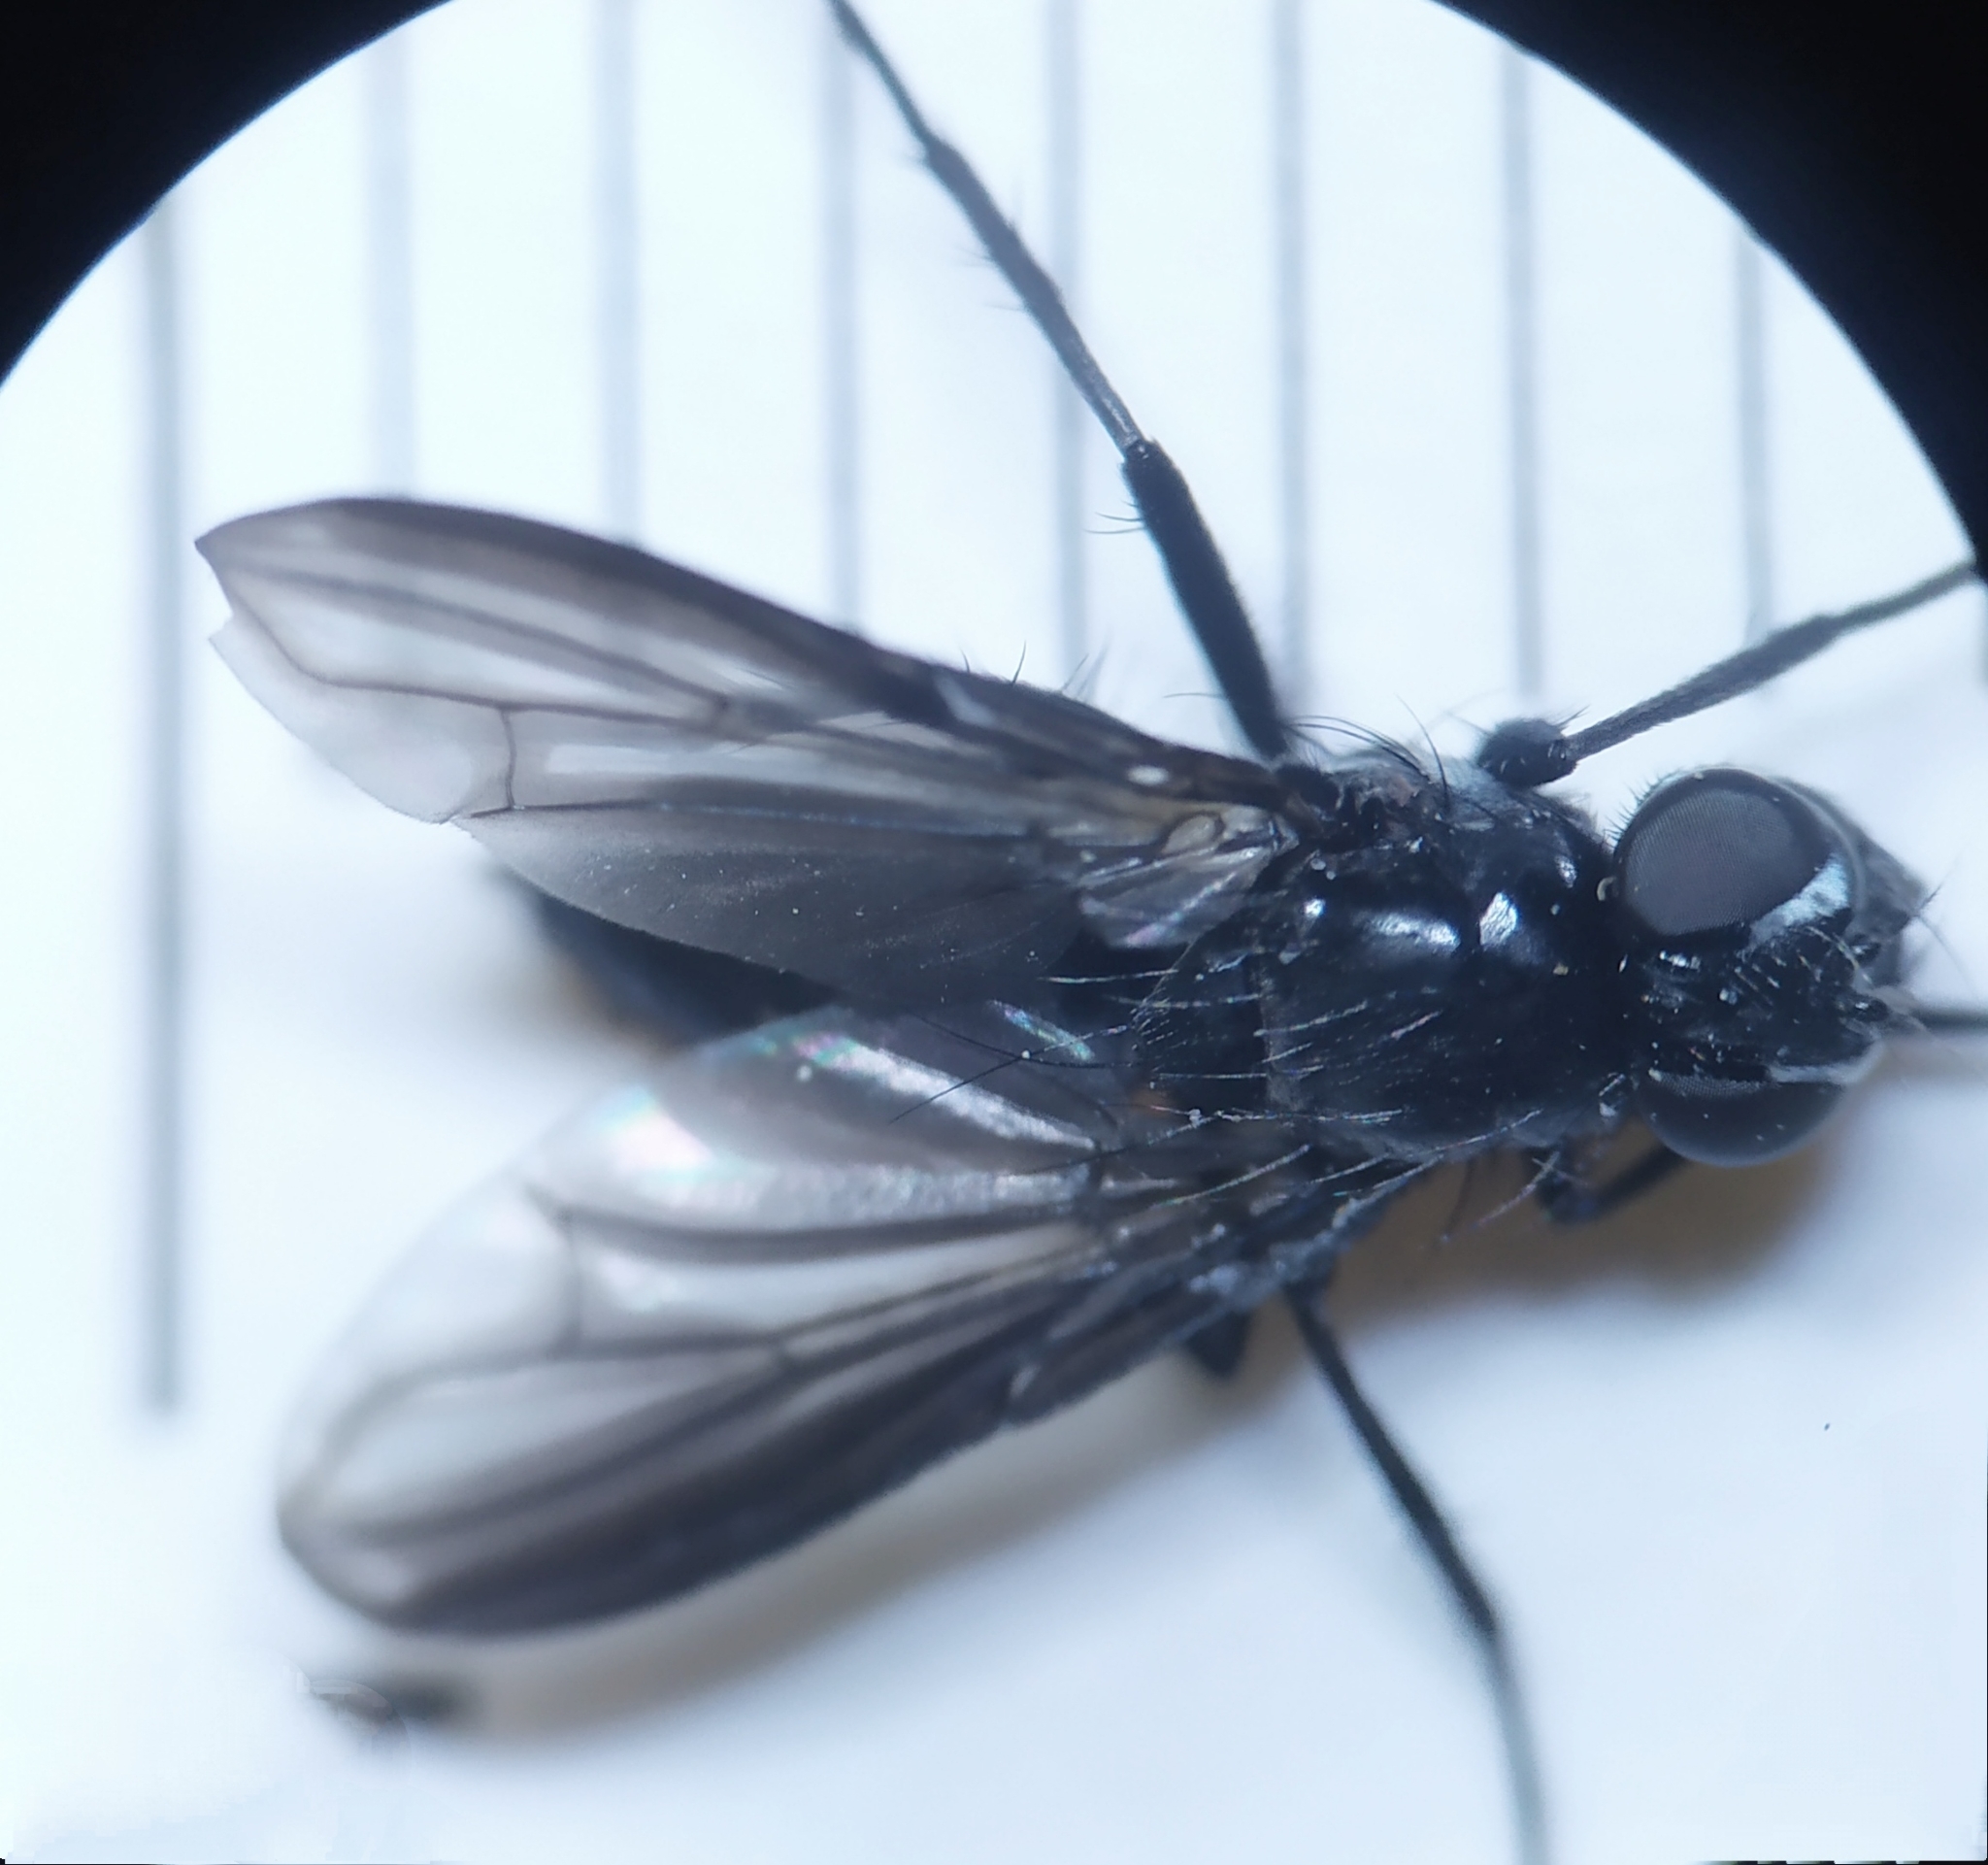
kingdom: Animalia
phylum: Arthropoda
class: Insecta
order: Diptera
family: Polleniidae
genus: Morinia
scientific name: Morinia doronici
